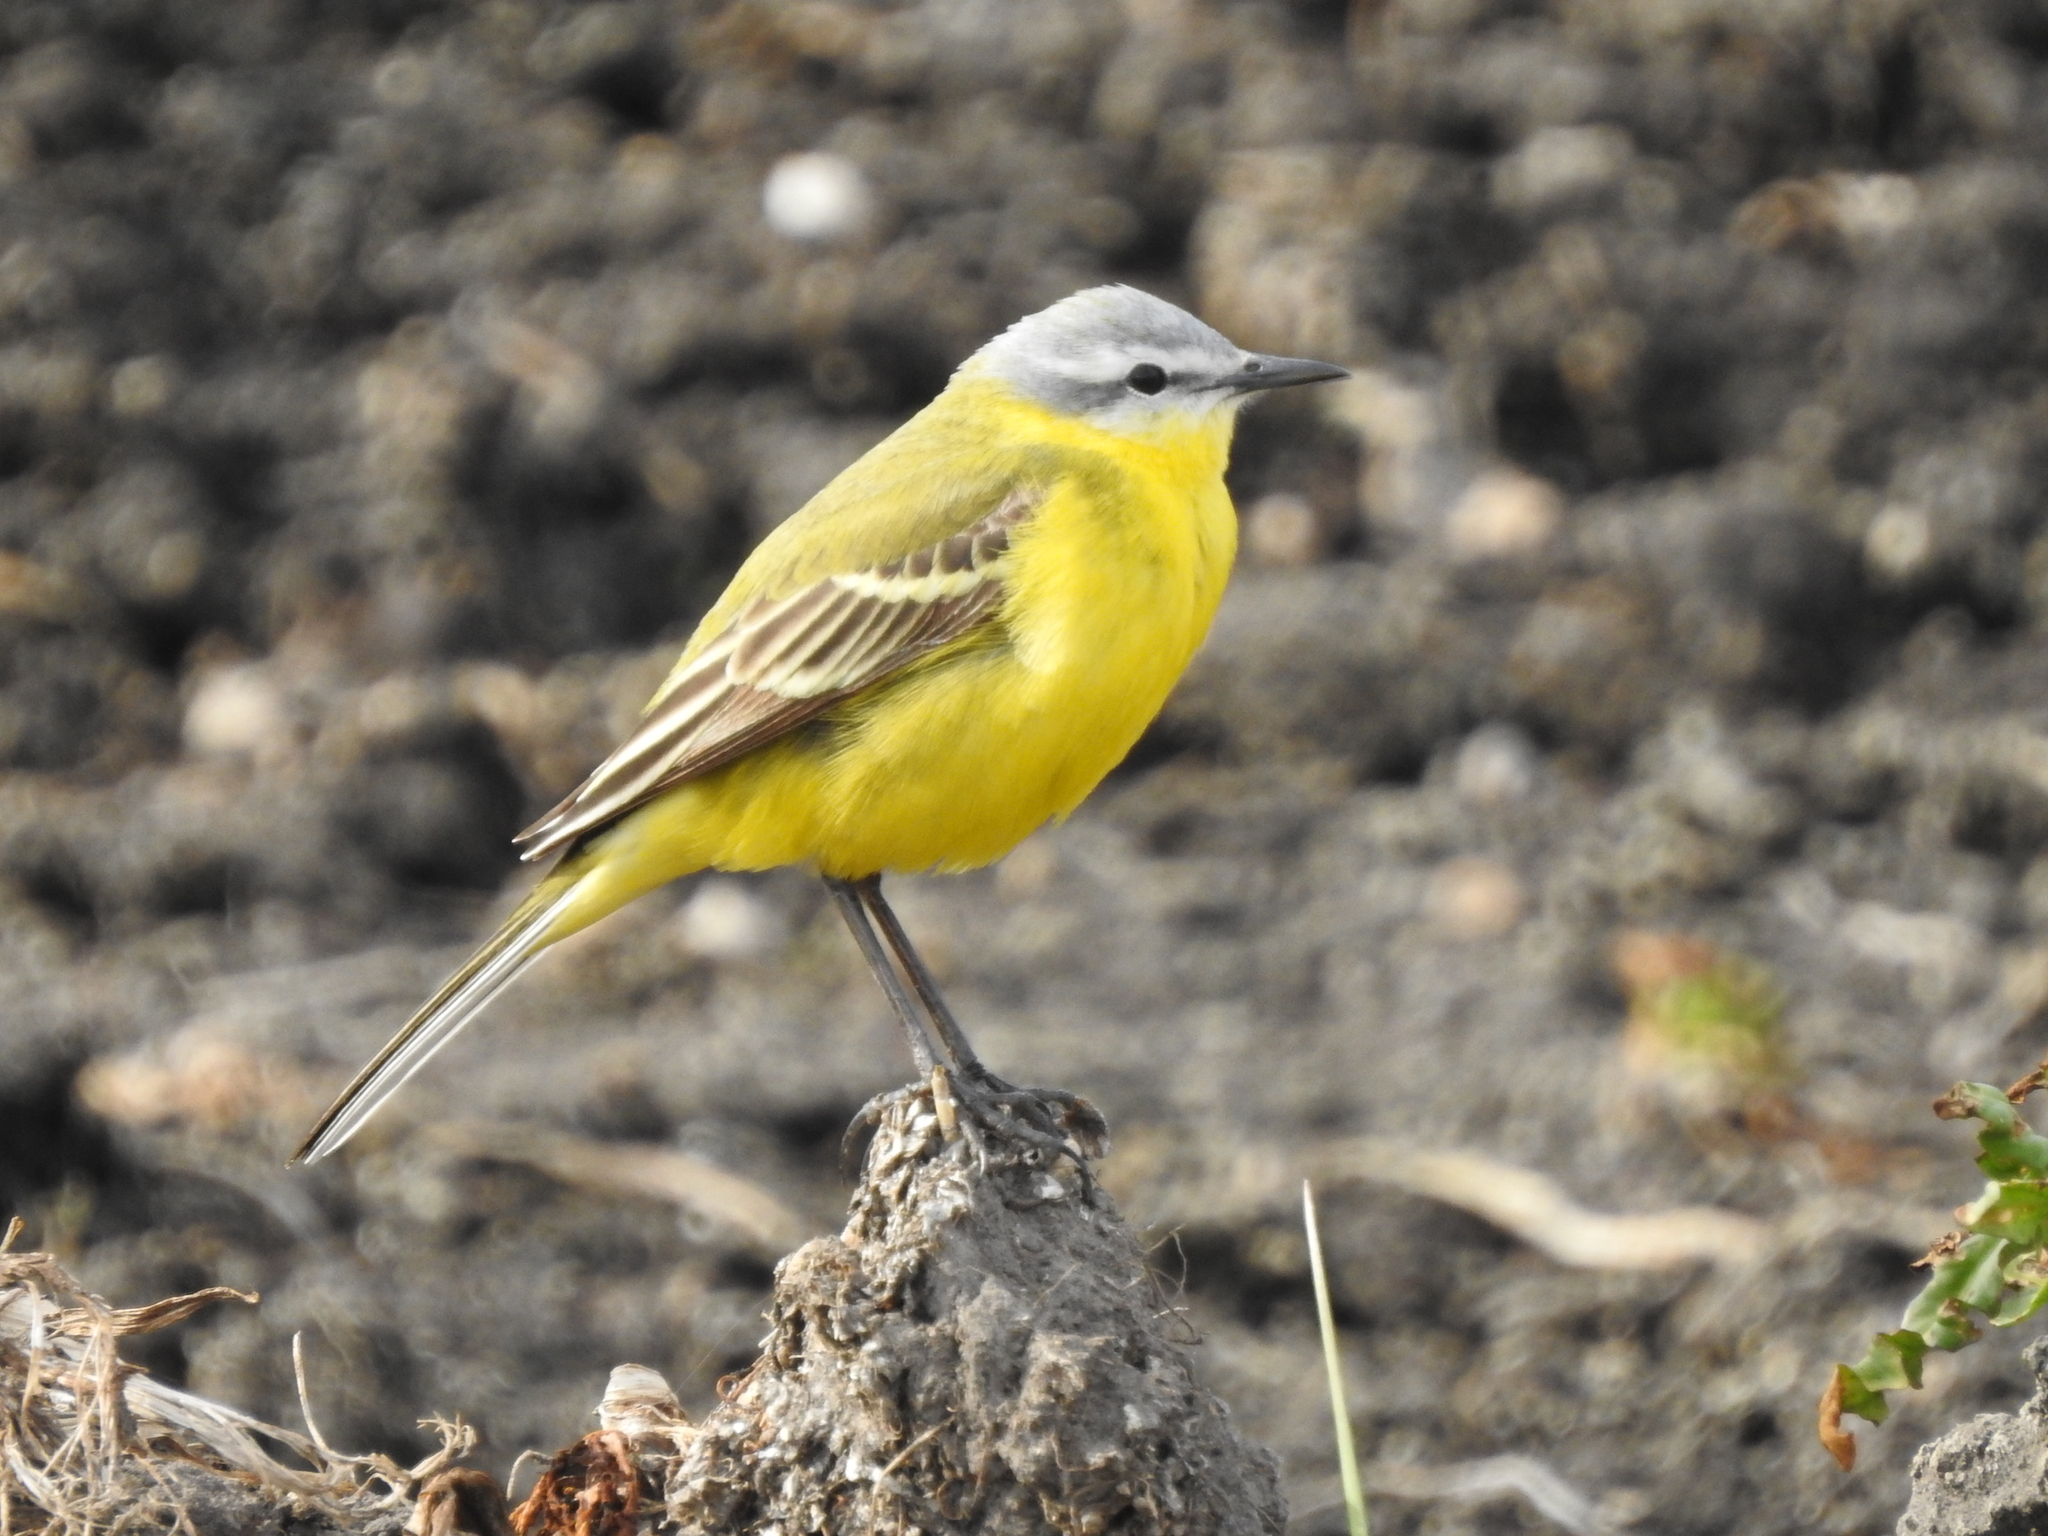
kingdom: Animalia
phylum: Chordata
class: Aves
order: Passeriformes
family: Motacillidae
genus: Motacilla
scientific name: Motacilla flava
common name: Western yellow wagtail
